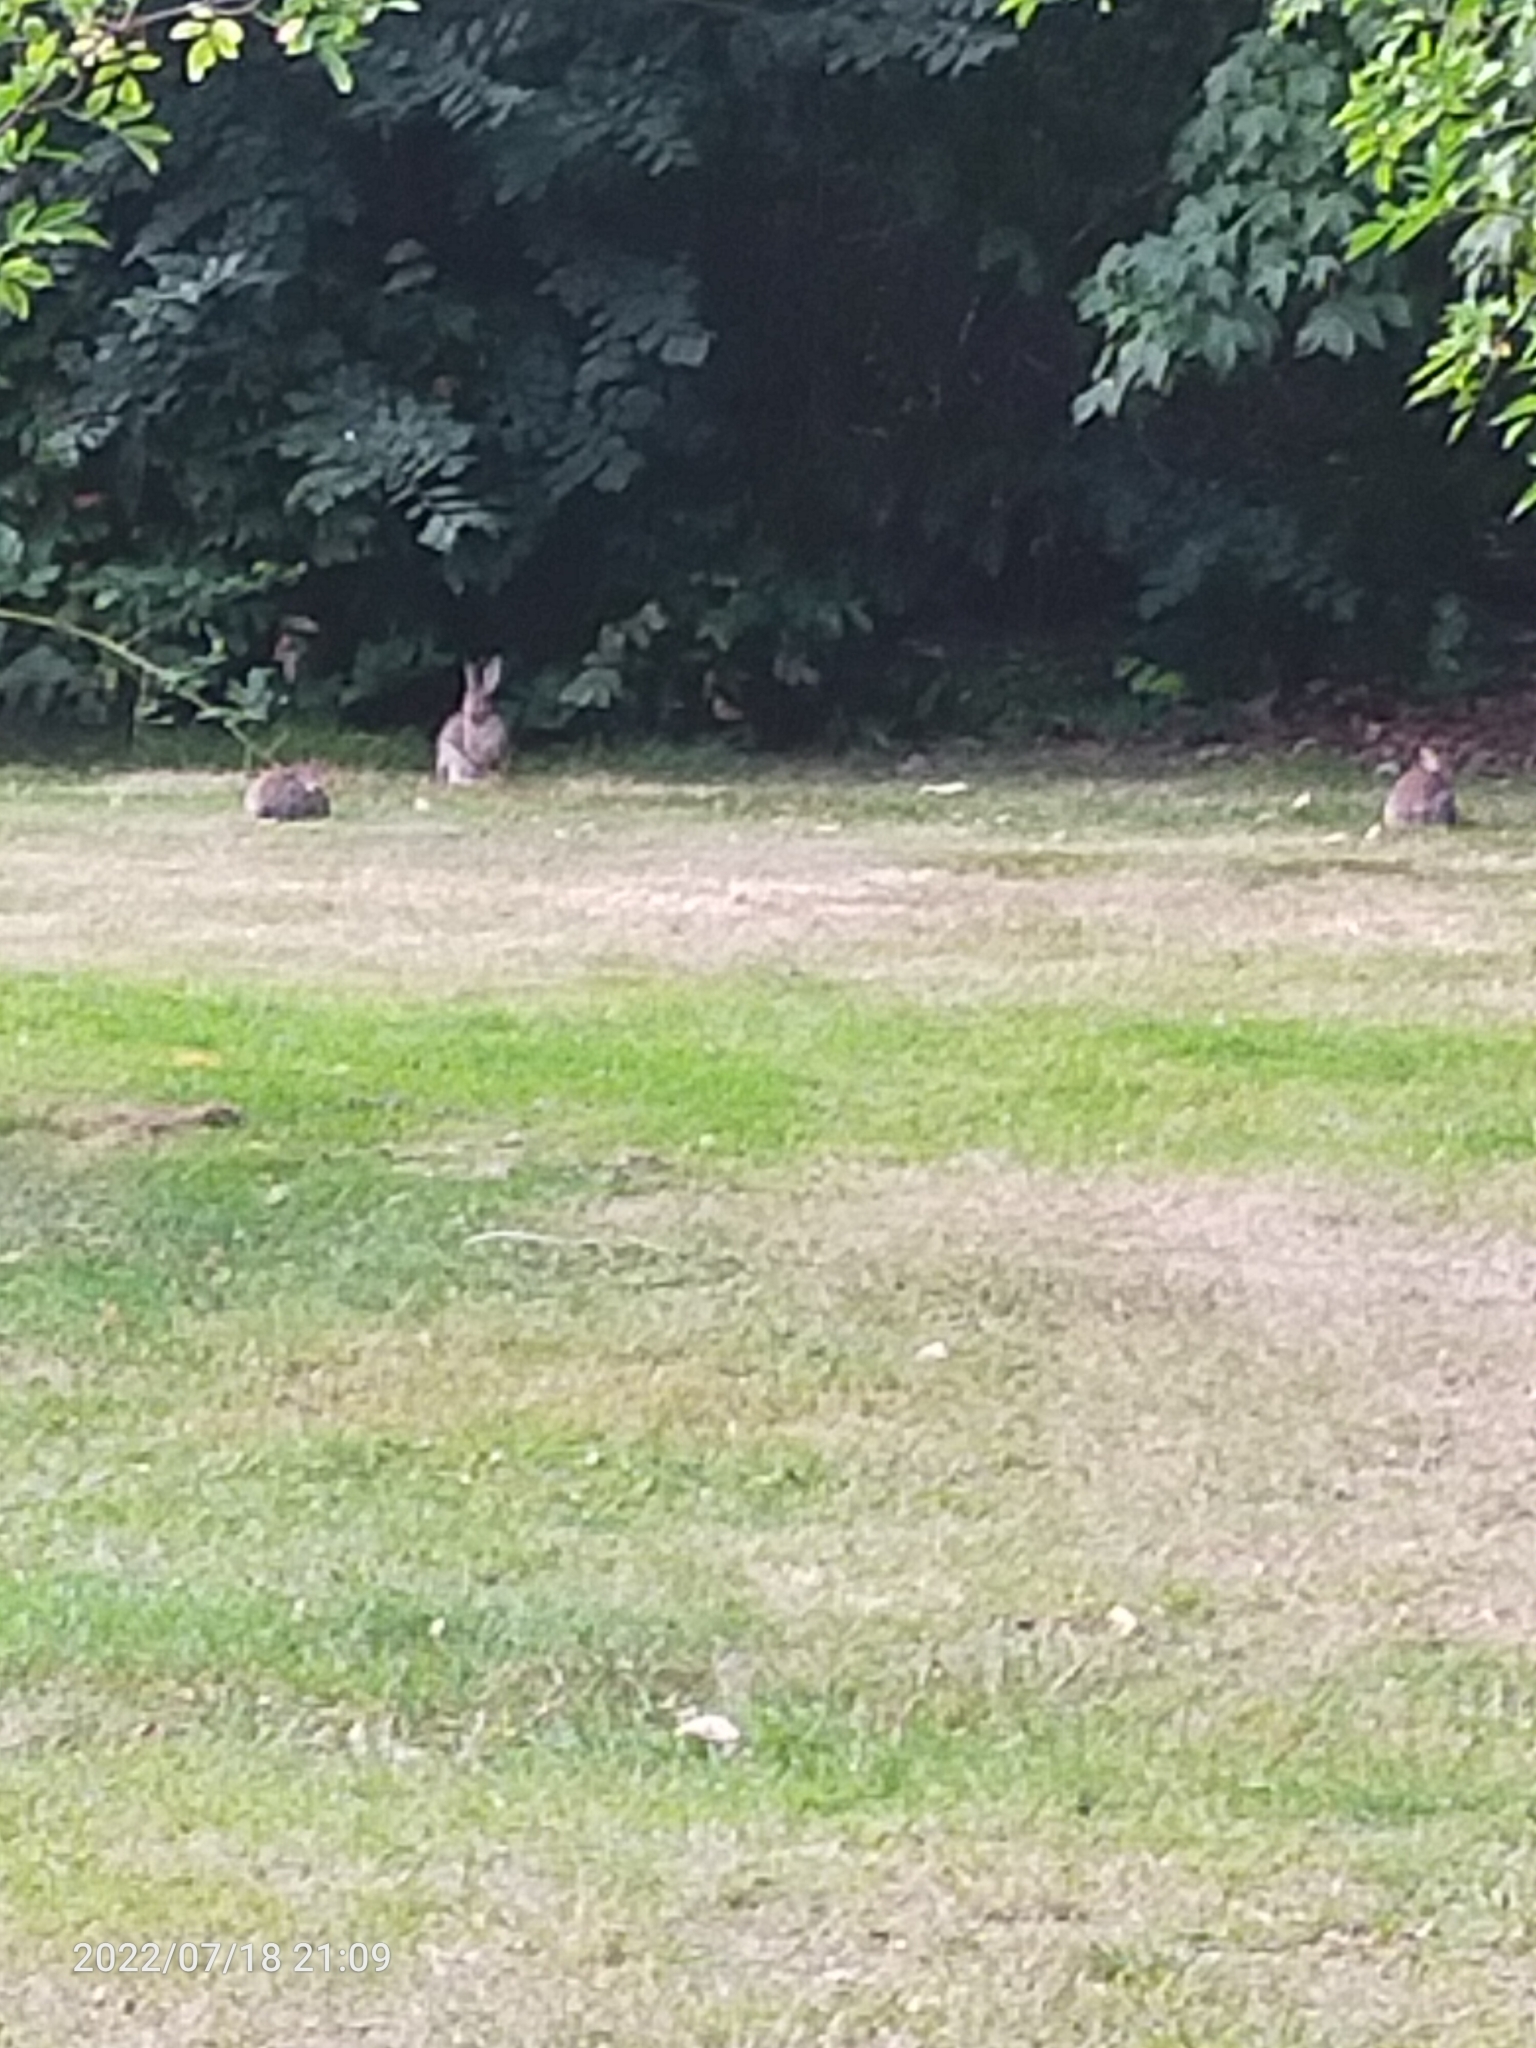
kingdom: Animalia
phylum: Chordata
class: Mammalia
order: Lagomorpha
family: Leporidae
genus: Oryctolagus
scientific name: Oryctolagus cuniculus
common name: European rabbit
